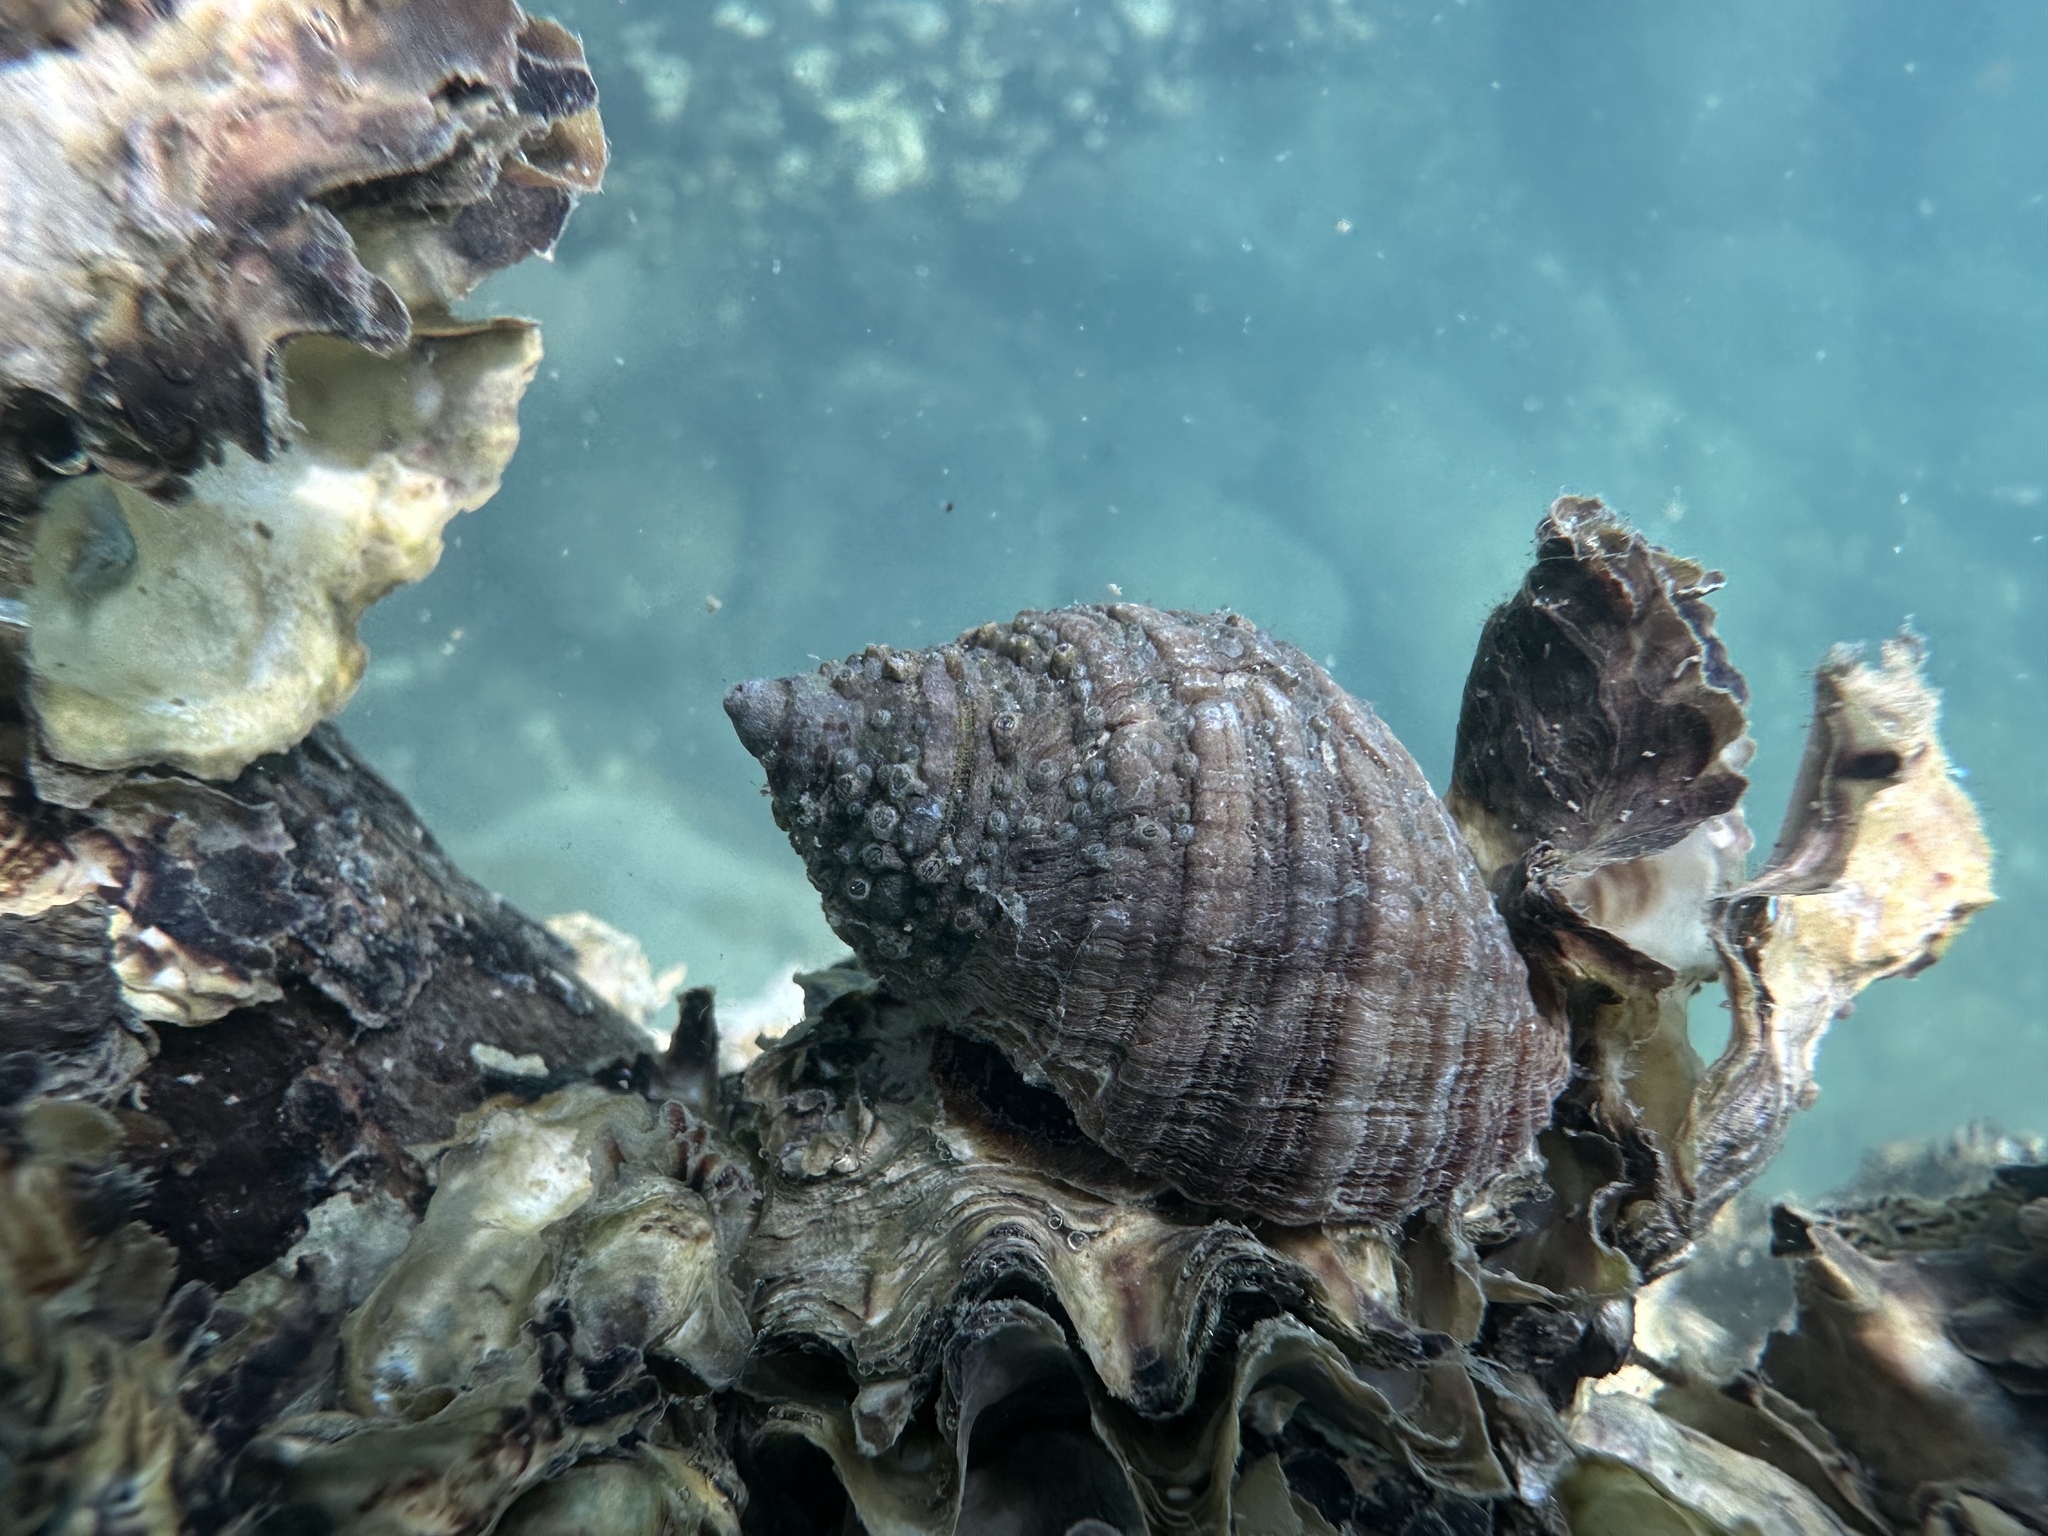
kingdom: Animalia
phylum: Mollusca
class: Gastropoda
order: Neogastropoda
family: Muricidae
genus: Dicathais
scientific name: Dicathais orbita
